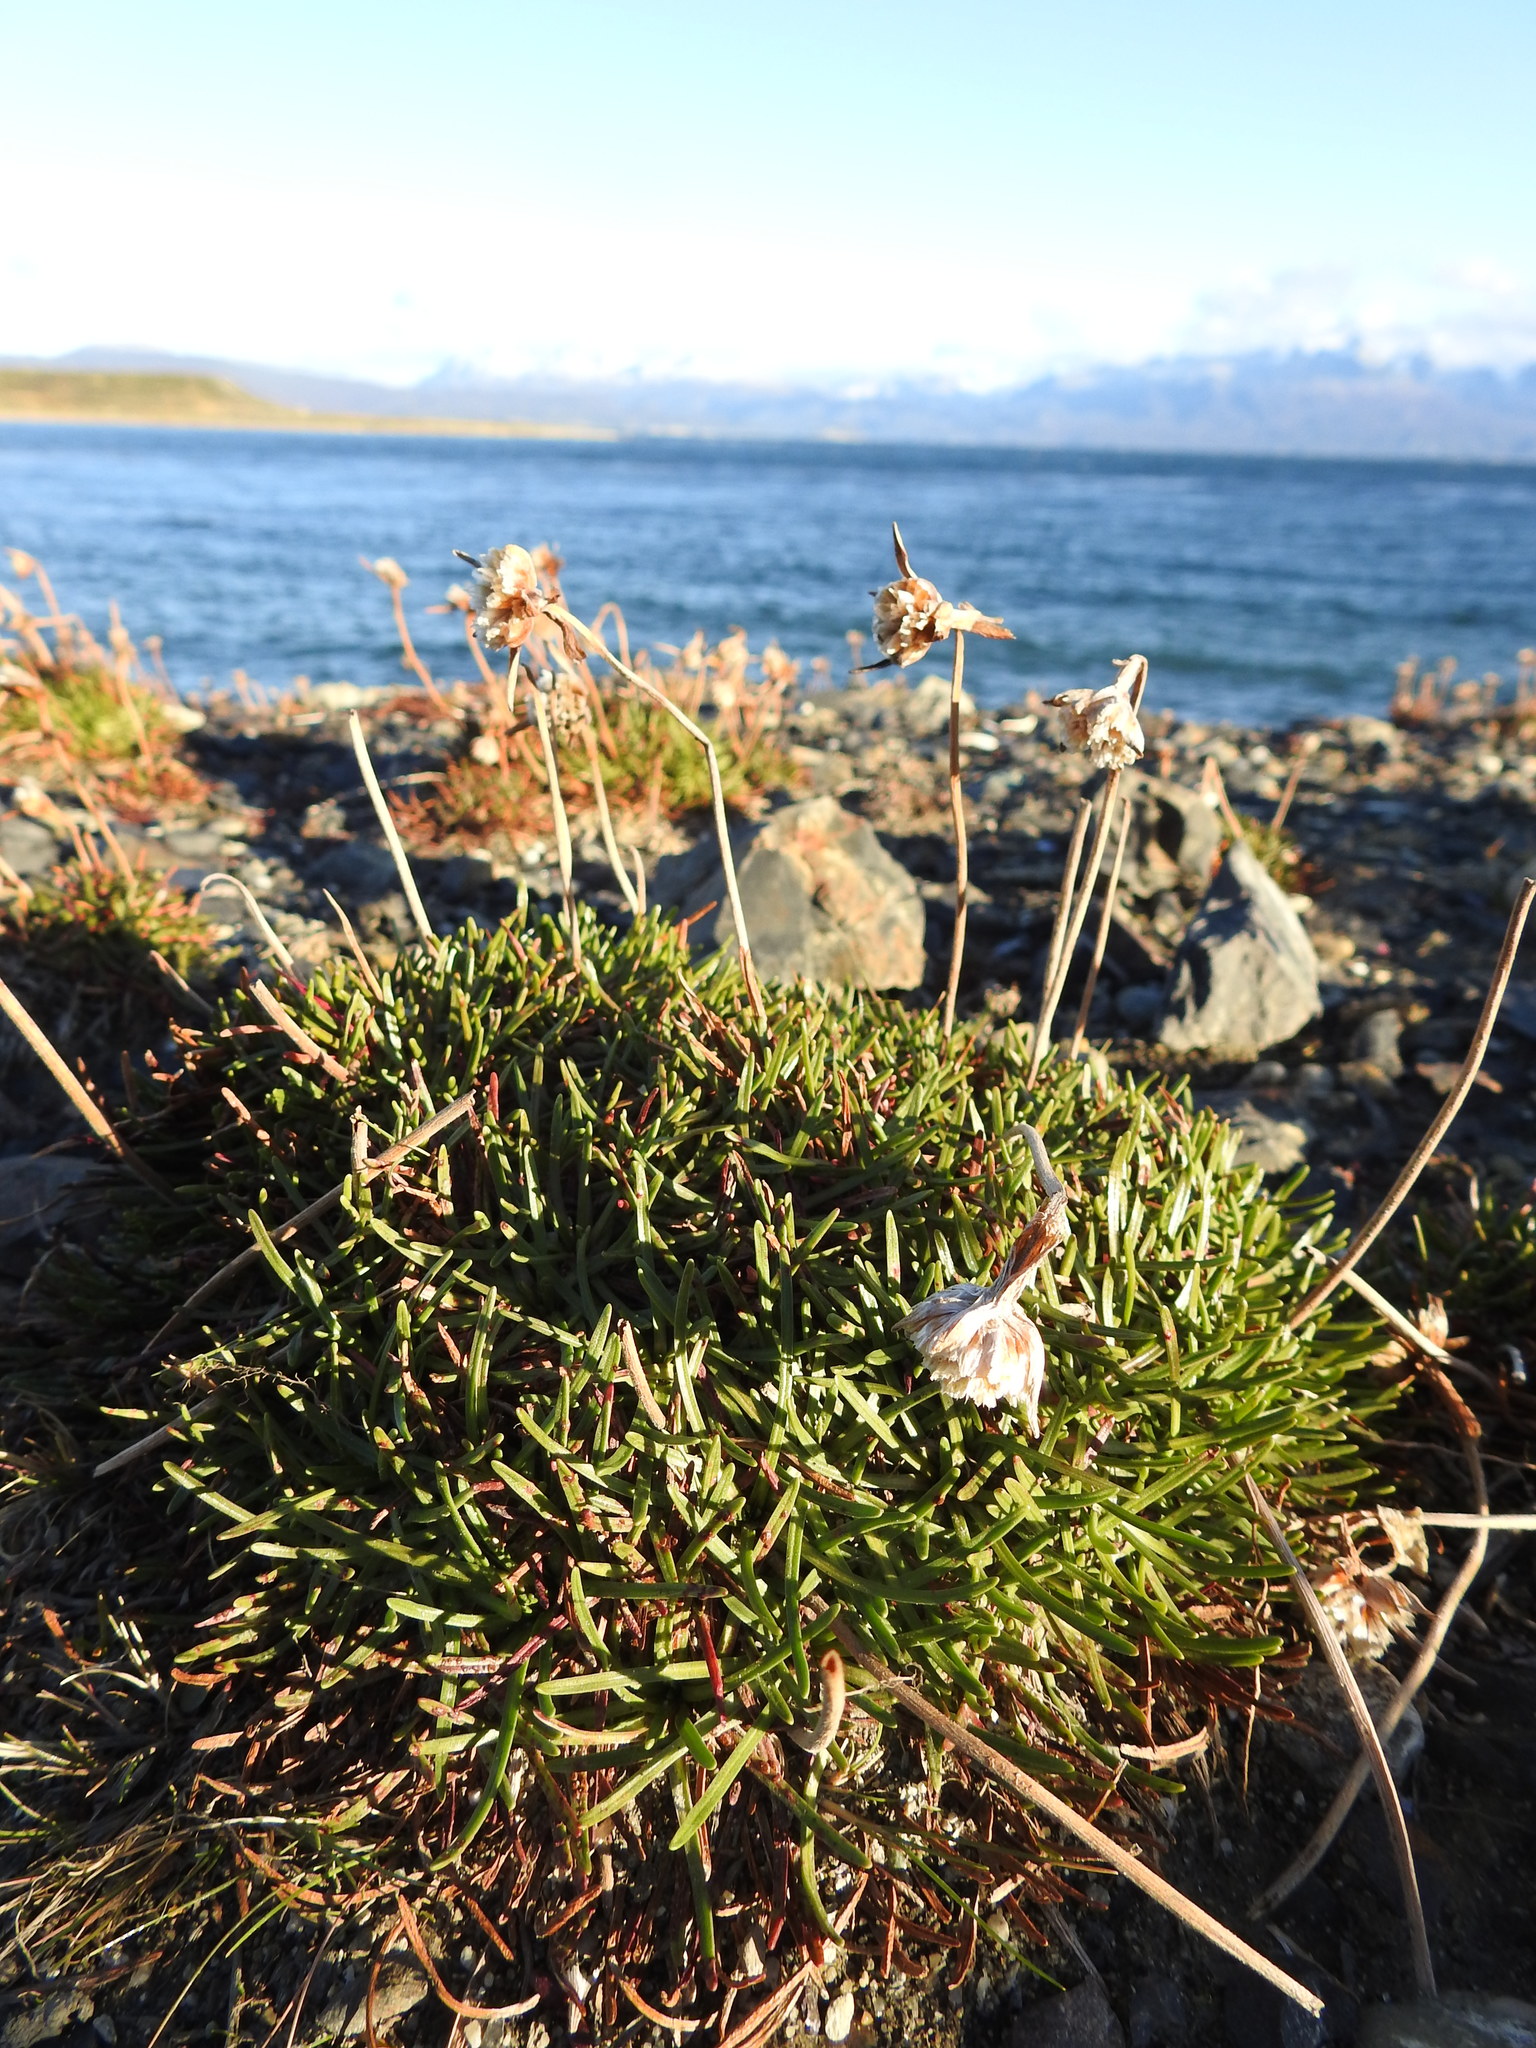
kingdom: Plantae
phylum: Tracheophyta
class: Magnoliopsida
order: Caryophyllales
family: Plumbaginaceae
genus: Armeria
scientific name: Armeria curvifolia
